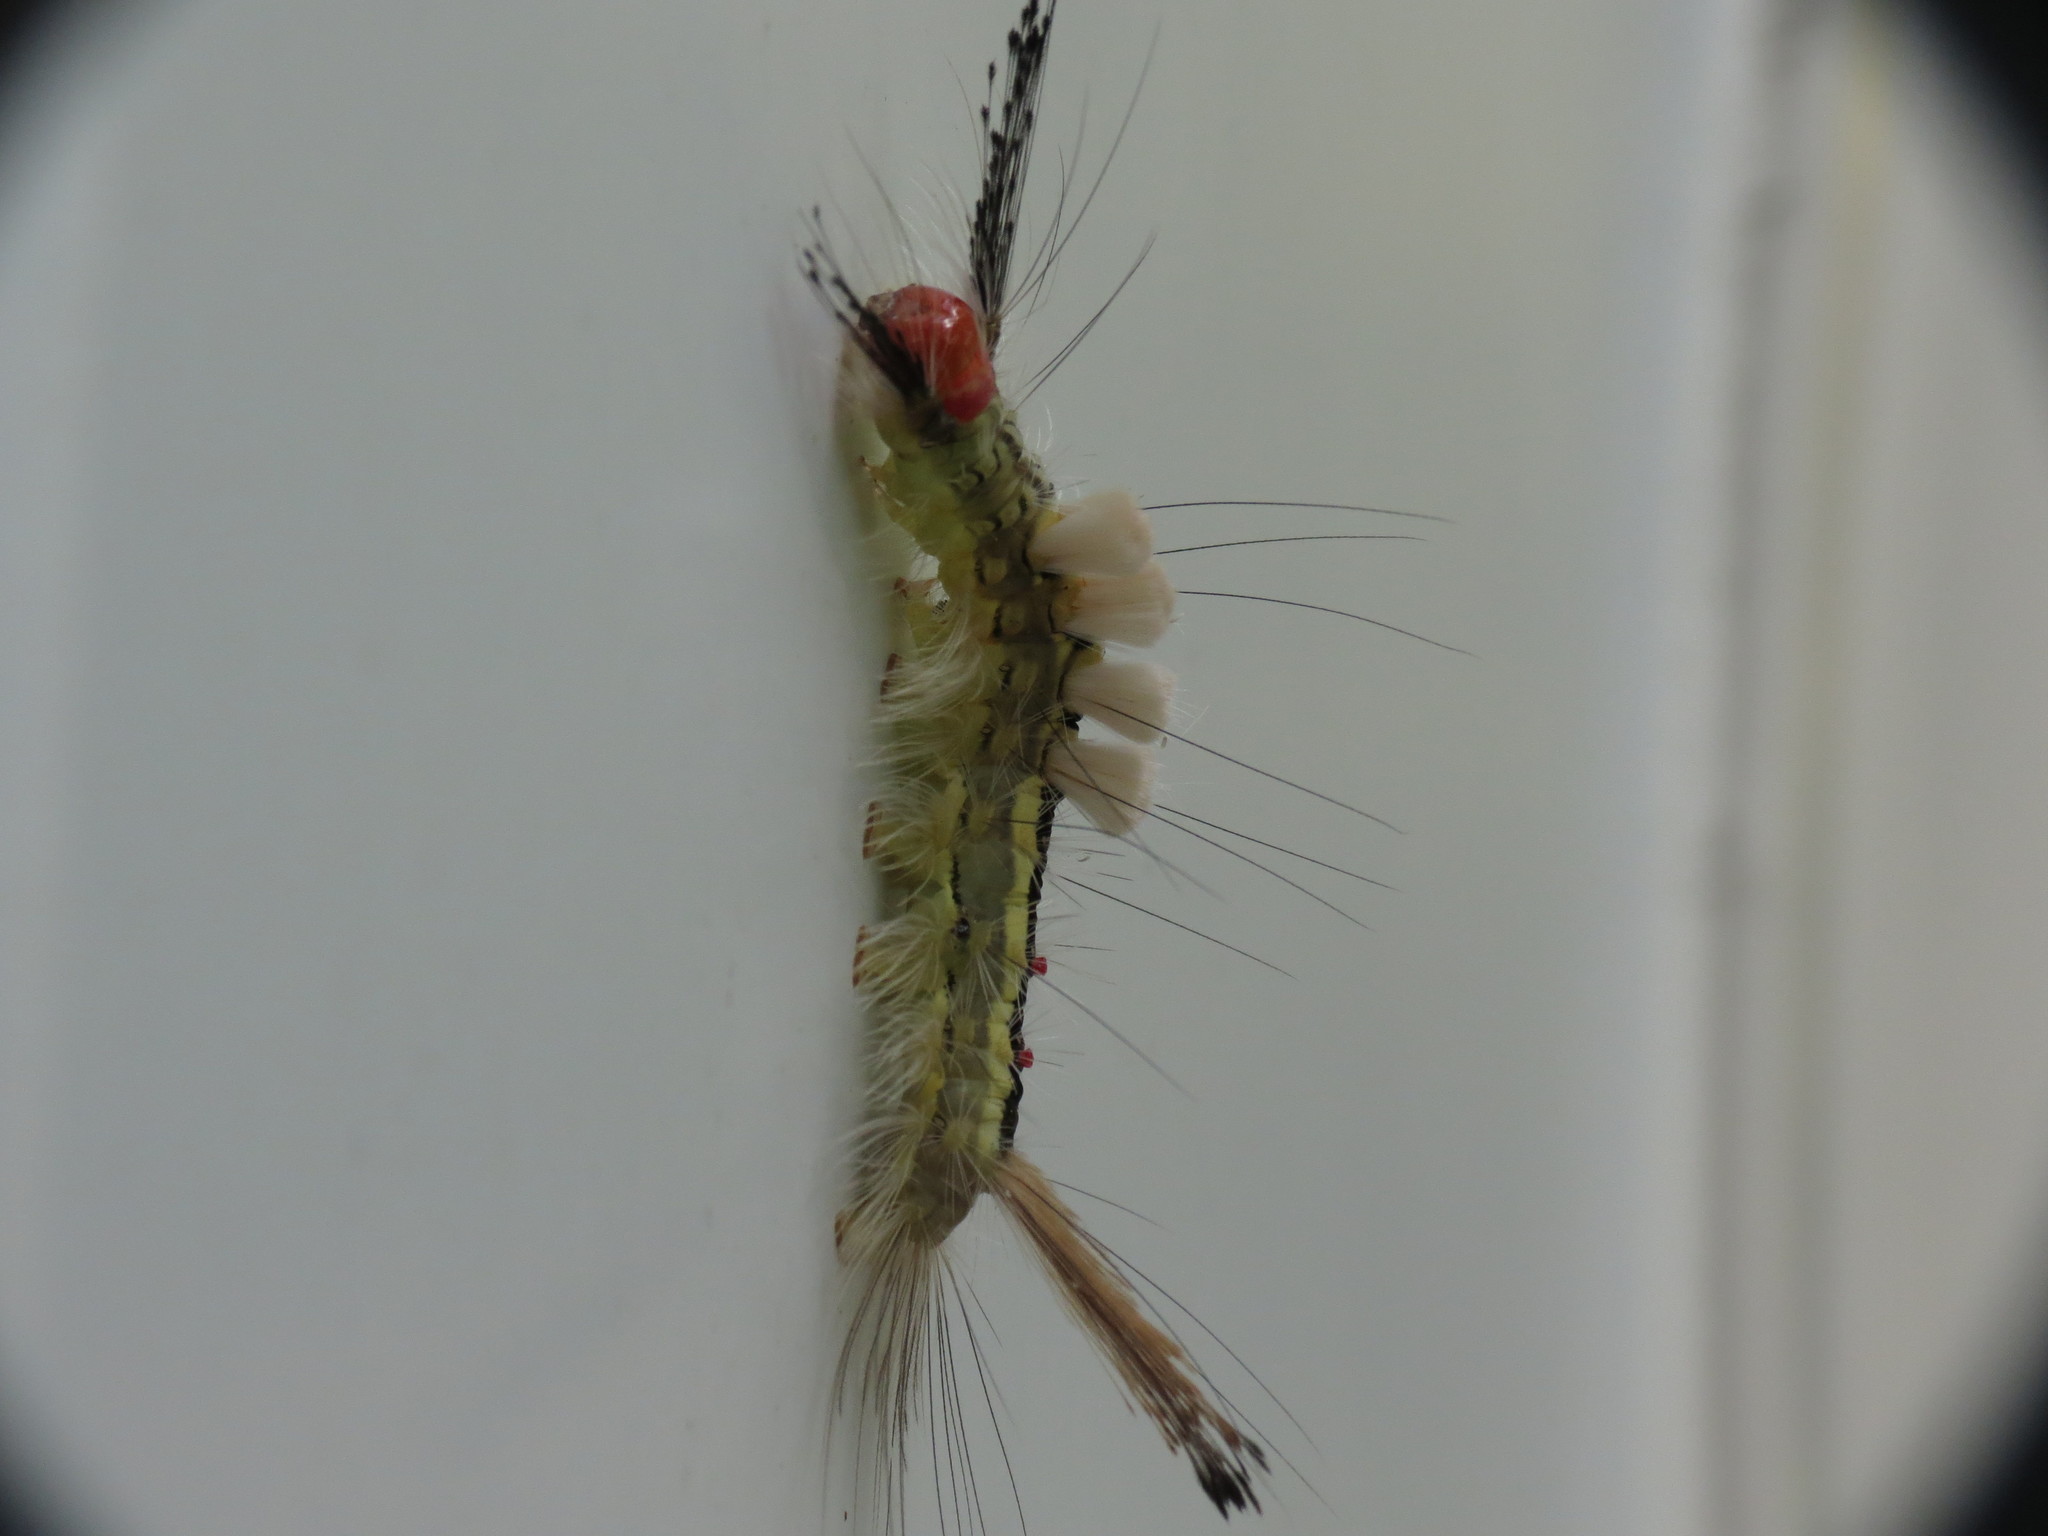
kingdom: Animalia
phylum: Arthropoda
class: Insecta
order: Lepidoptera
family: Erebidae
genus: Orgyia
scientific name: Orgyia leucostigma
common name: White-marked tussock moth
